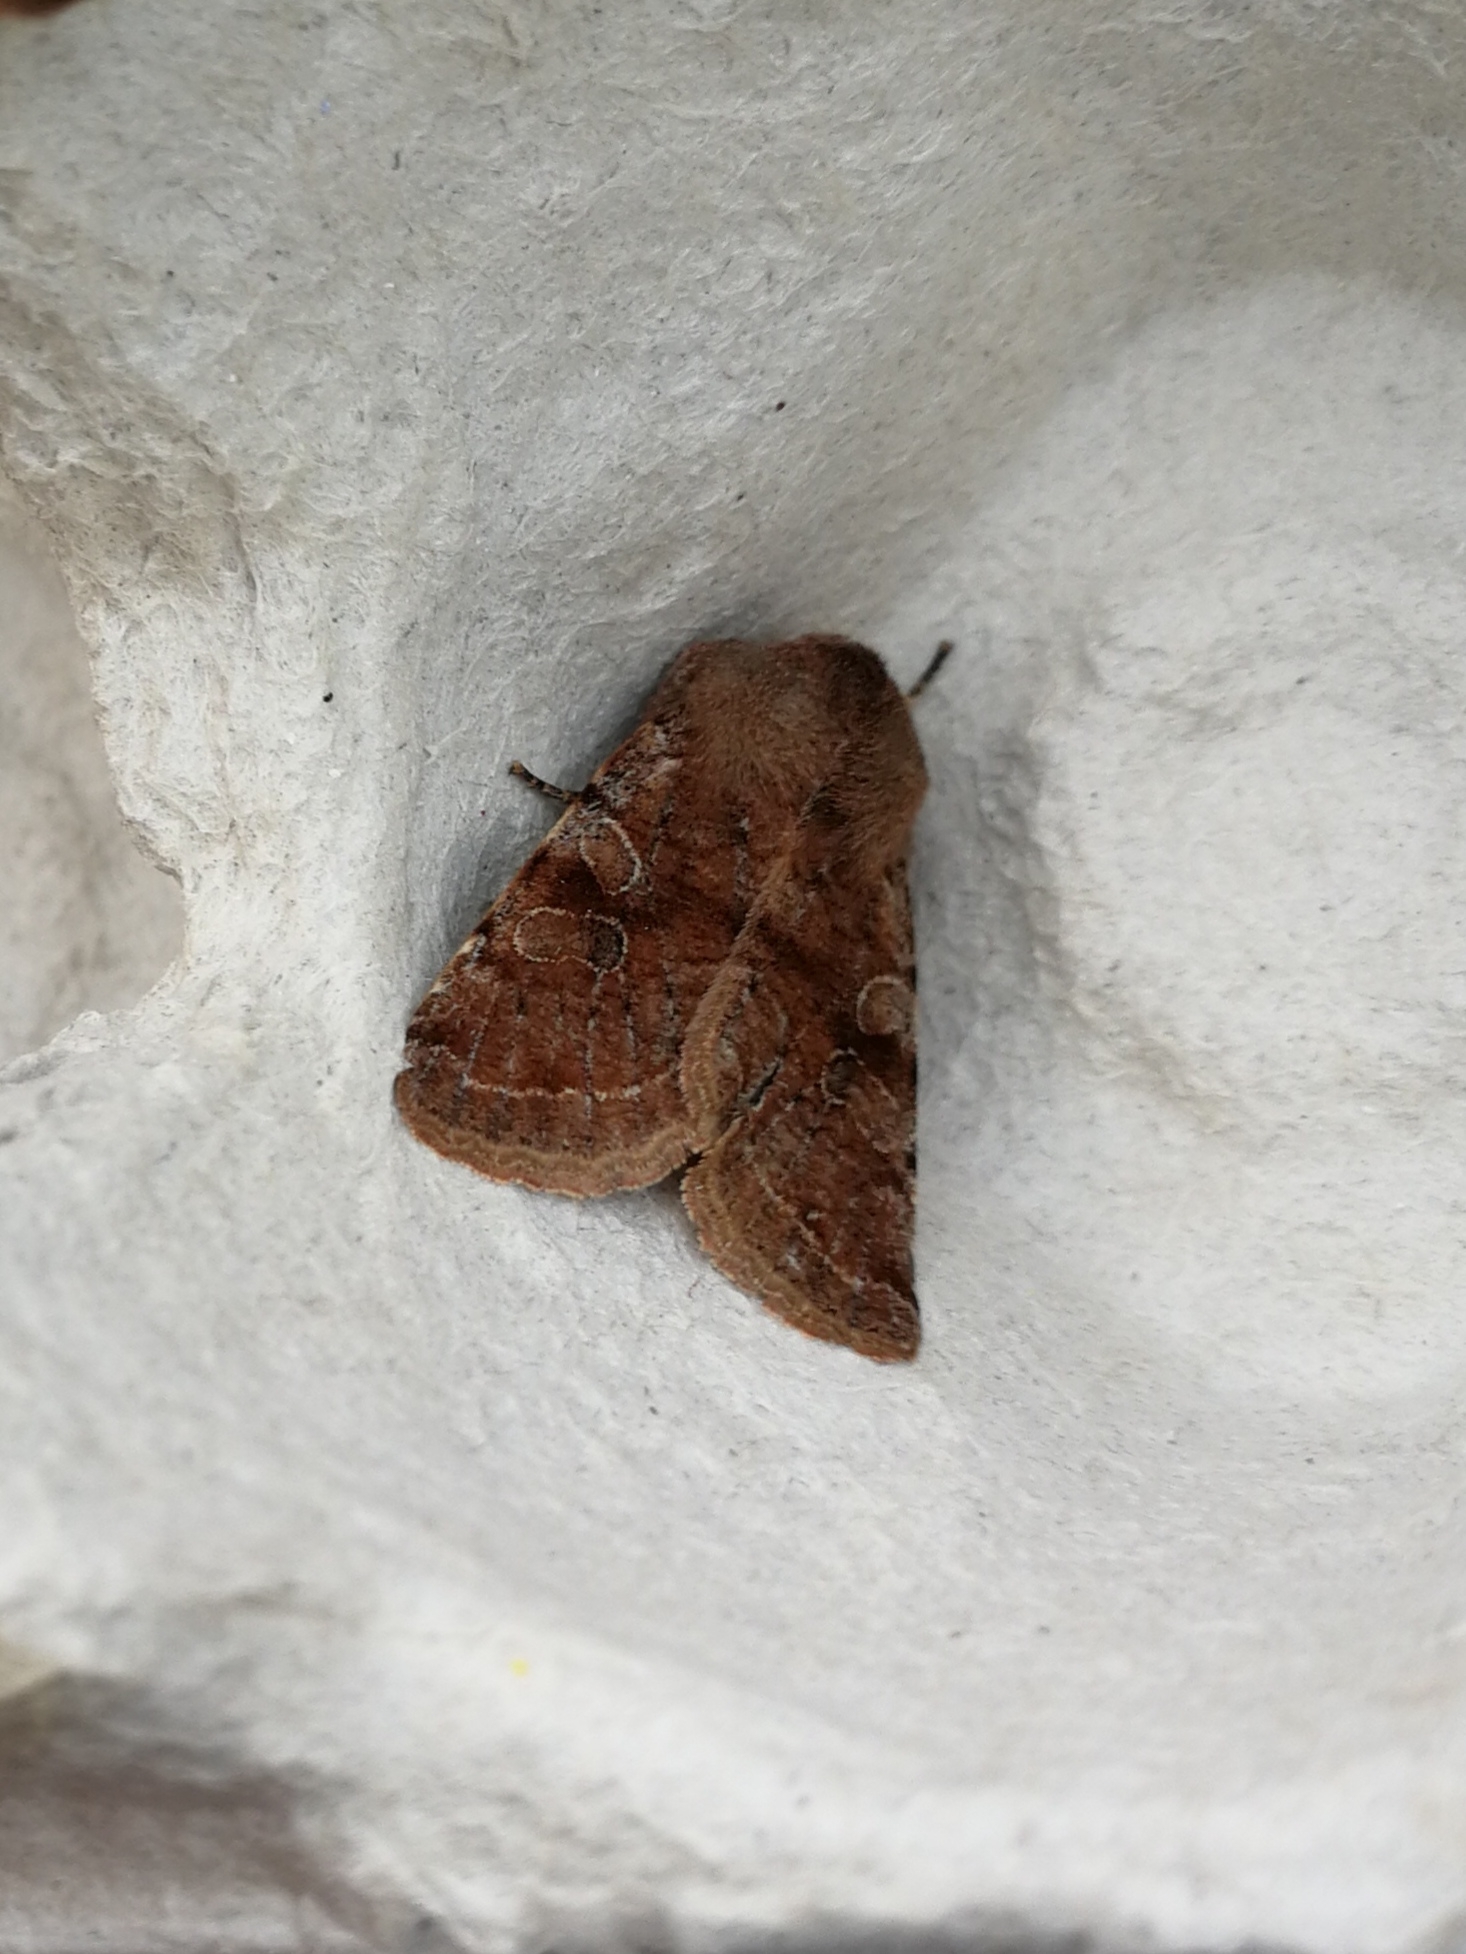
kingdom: Animalia
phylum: Arthropoda
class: Insecta
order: Lepidoptera
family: Noctuidae
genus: Orthosia
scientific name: Orthosia incerta
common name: Clouded drab
